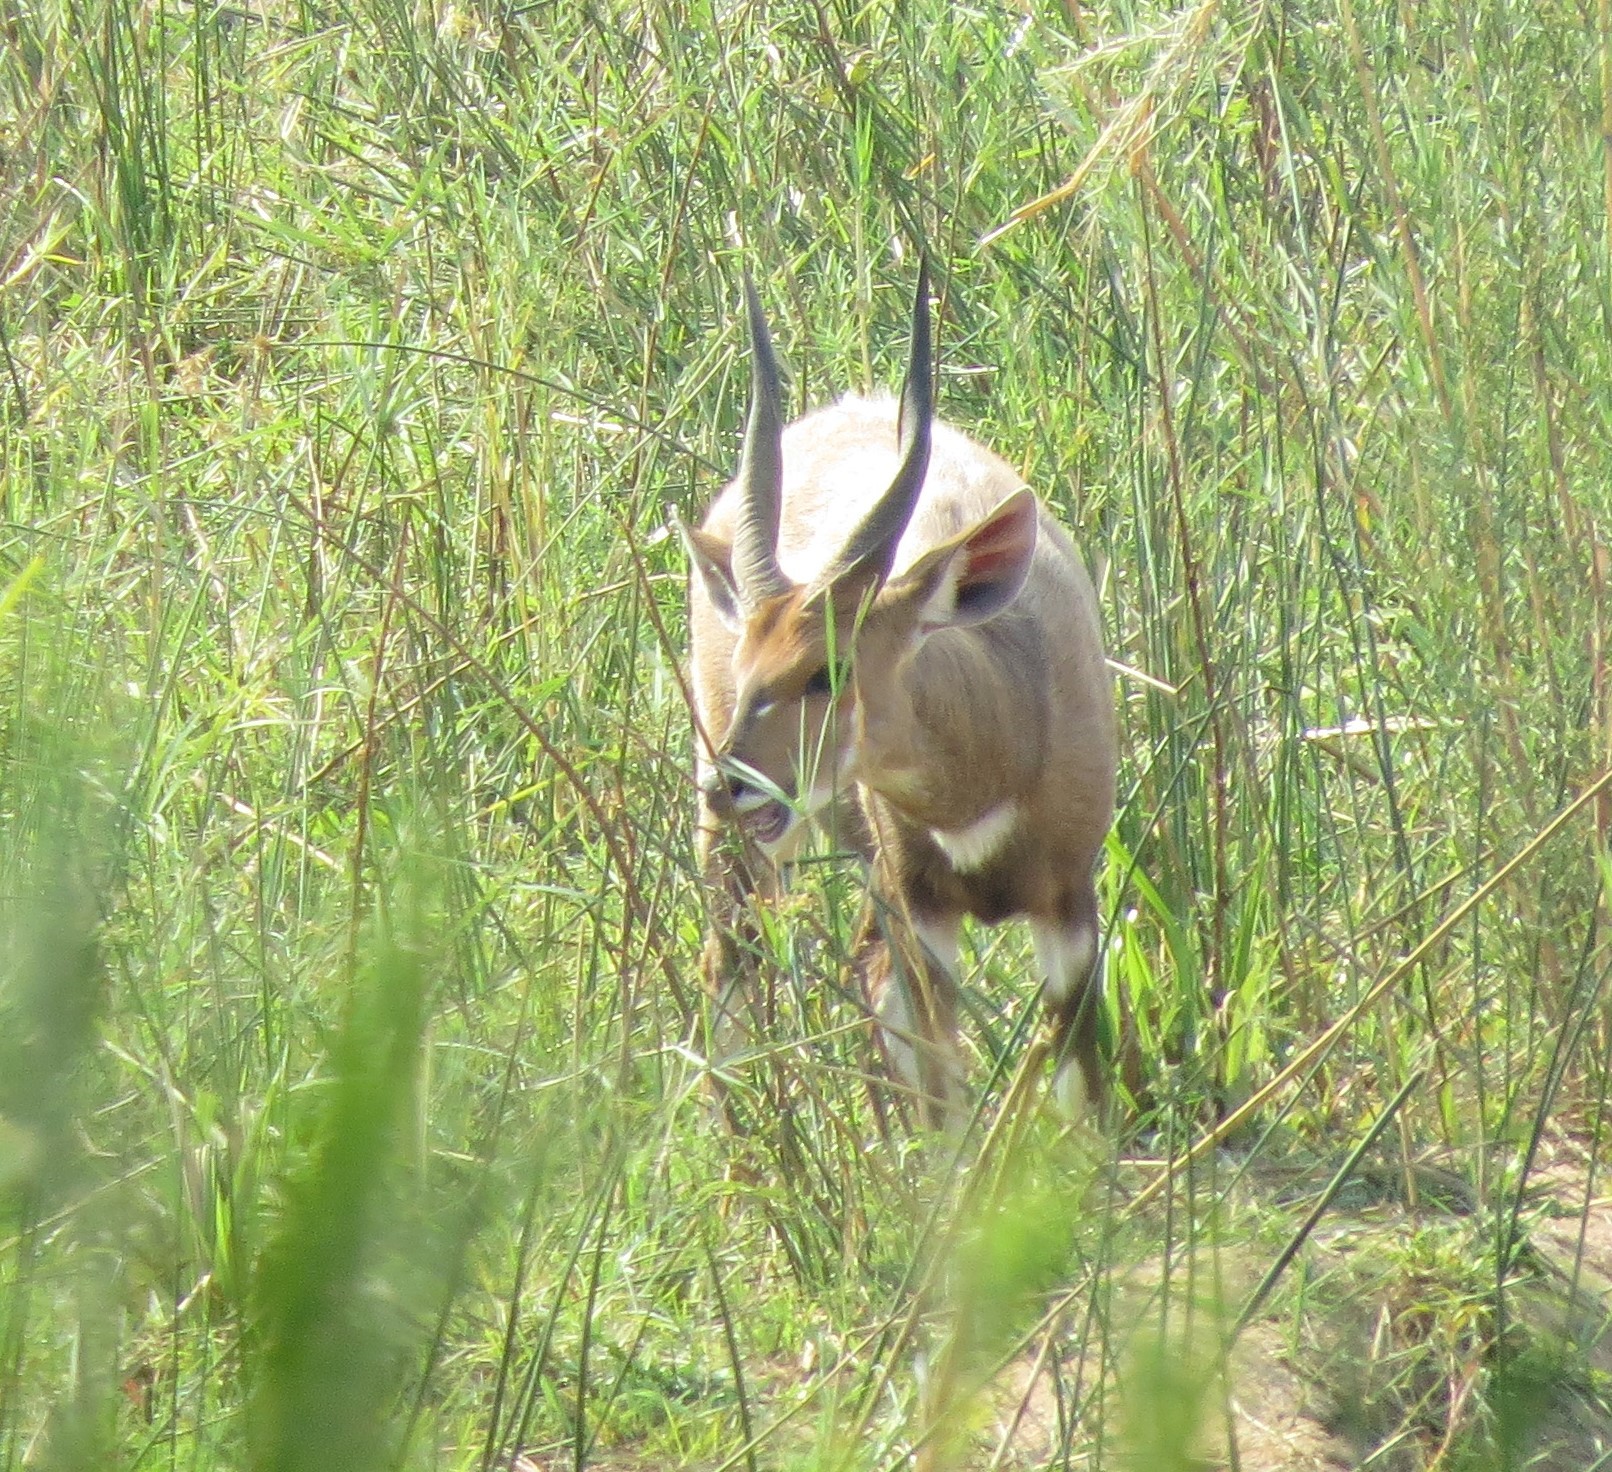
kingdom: Animalia
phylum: Chordata
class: Mammalia
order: Artiodactyla
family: Bovidae
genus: Tragelaphus
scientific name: Tragelaphus scriptus
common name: Bushbuck
